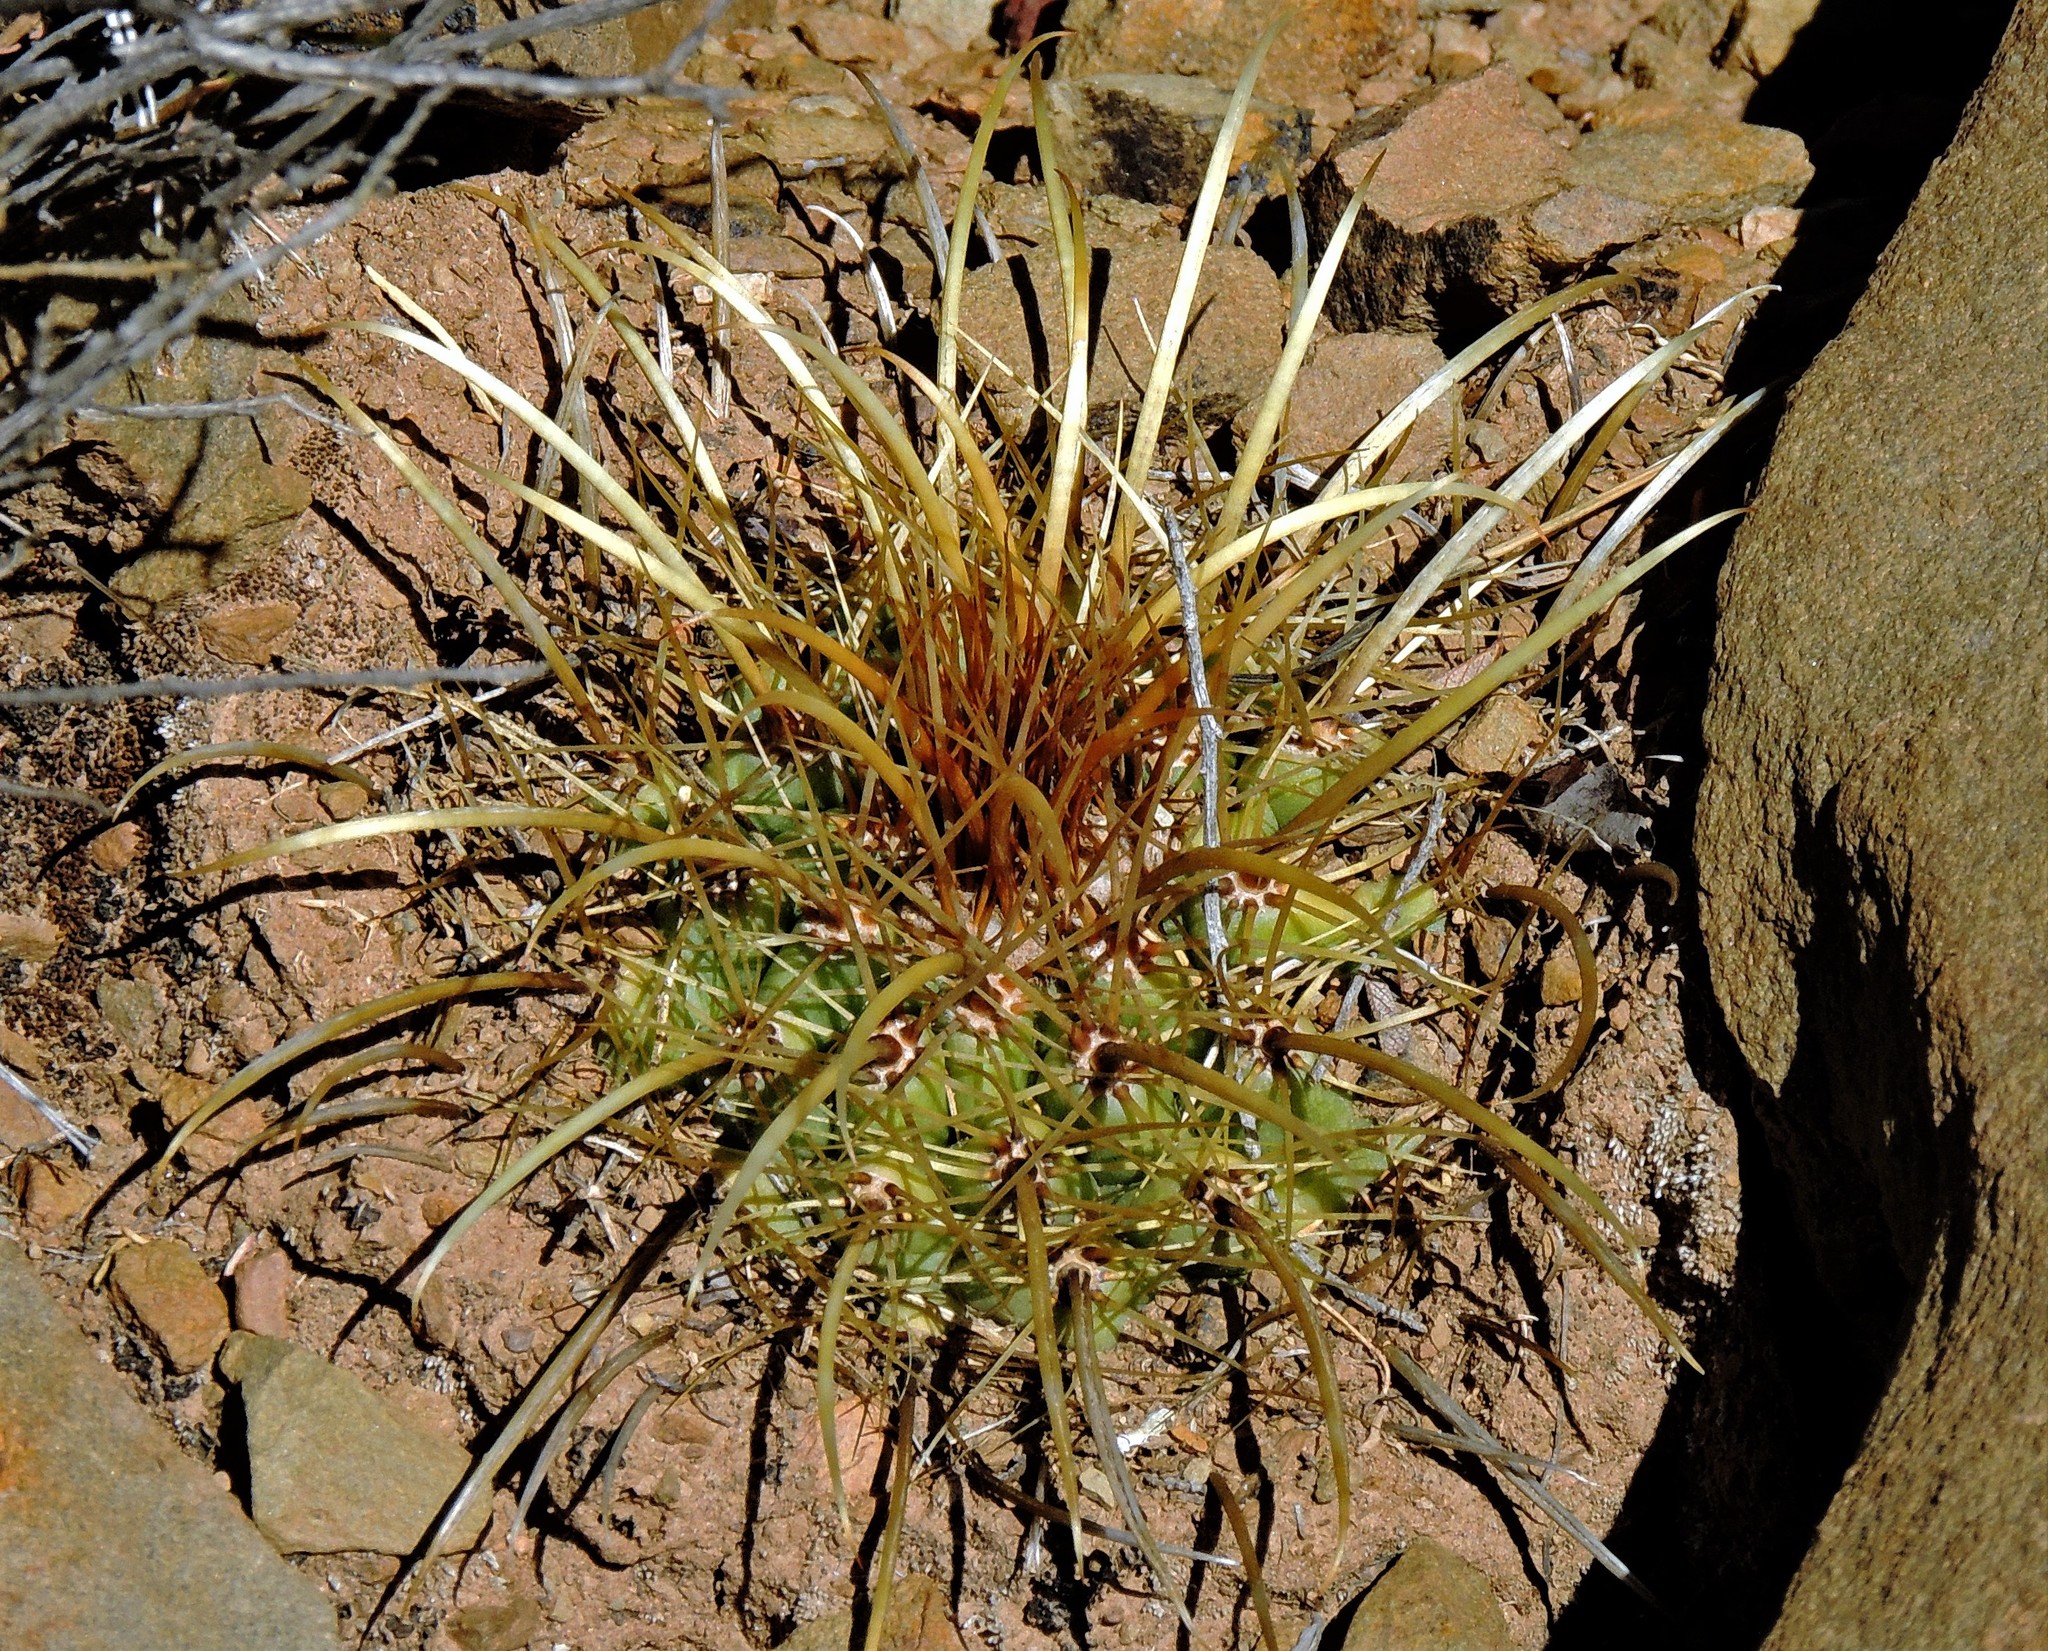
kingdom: Plantae
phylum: Tracheophyta
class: Magnoliopsida
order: Caryophyllales
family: Cactaceae
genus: Parodia
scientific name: Parodia maassii
